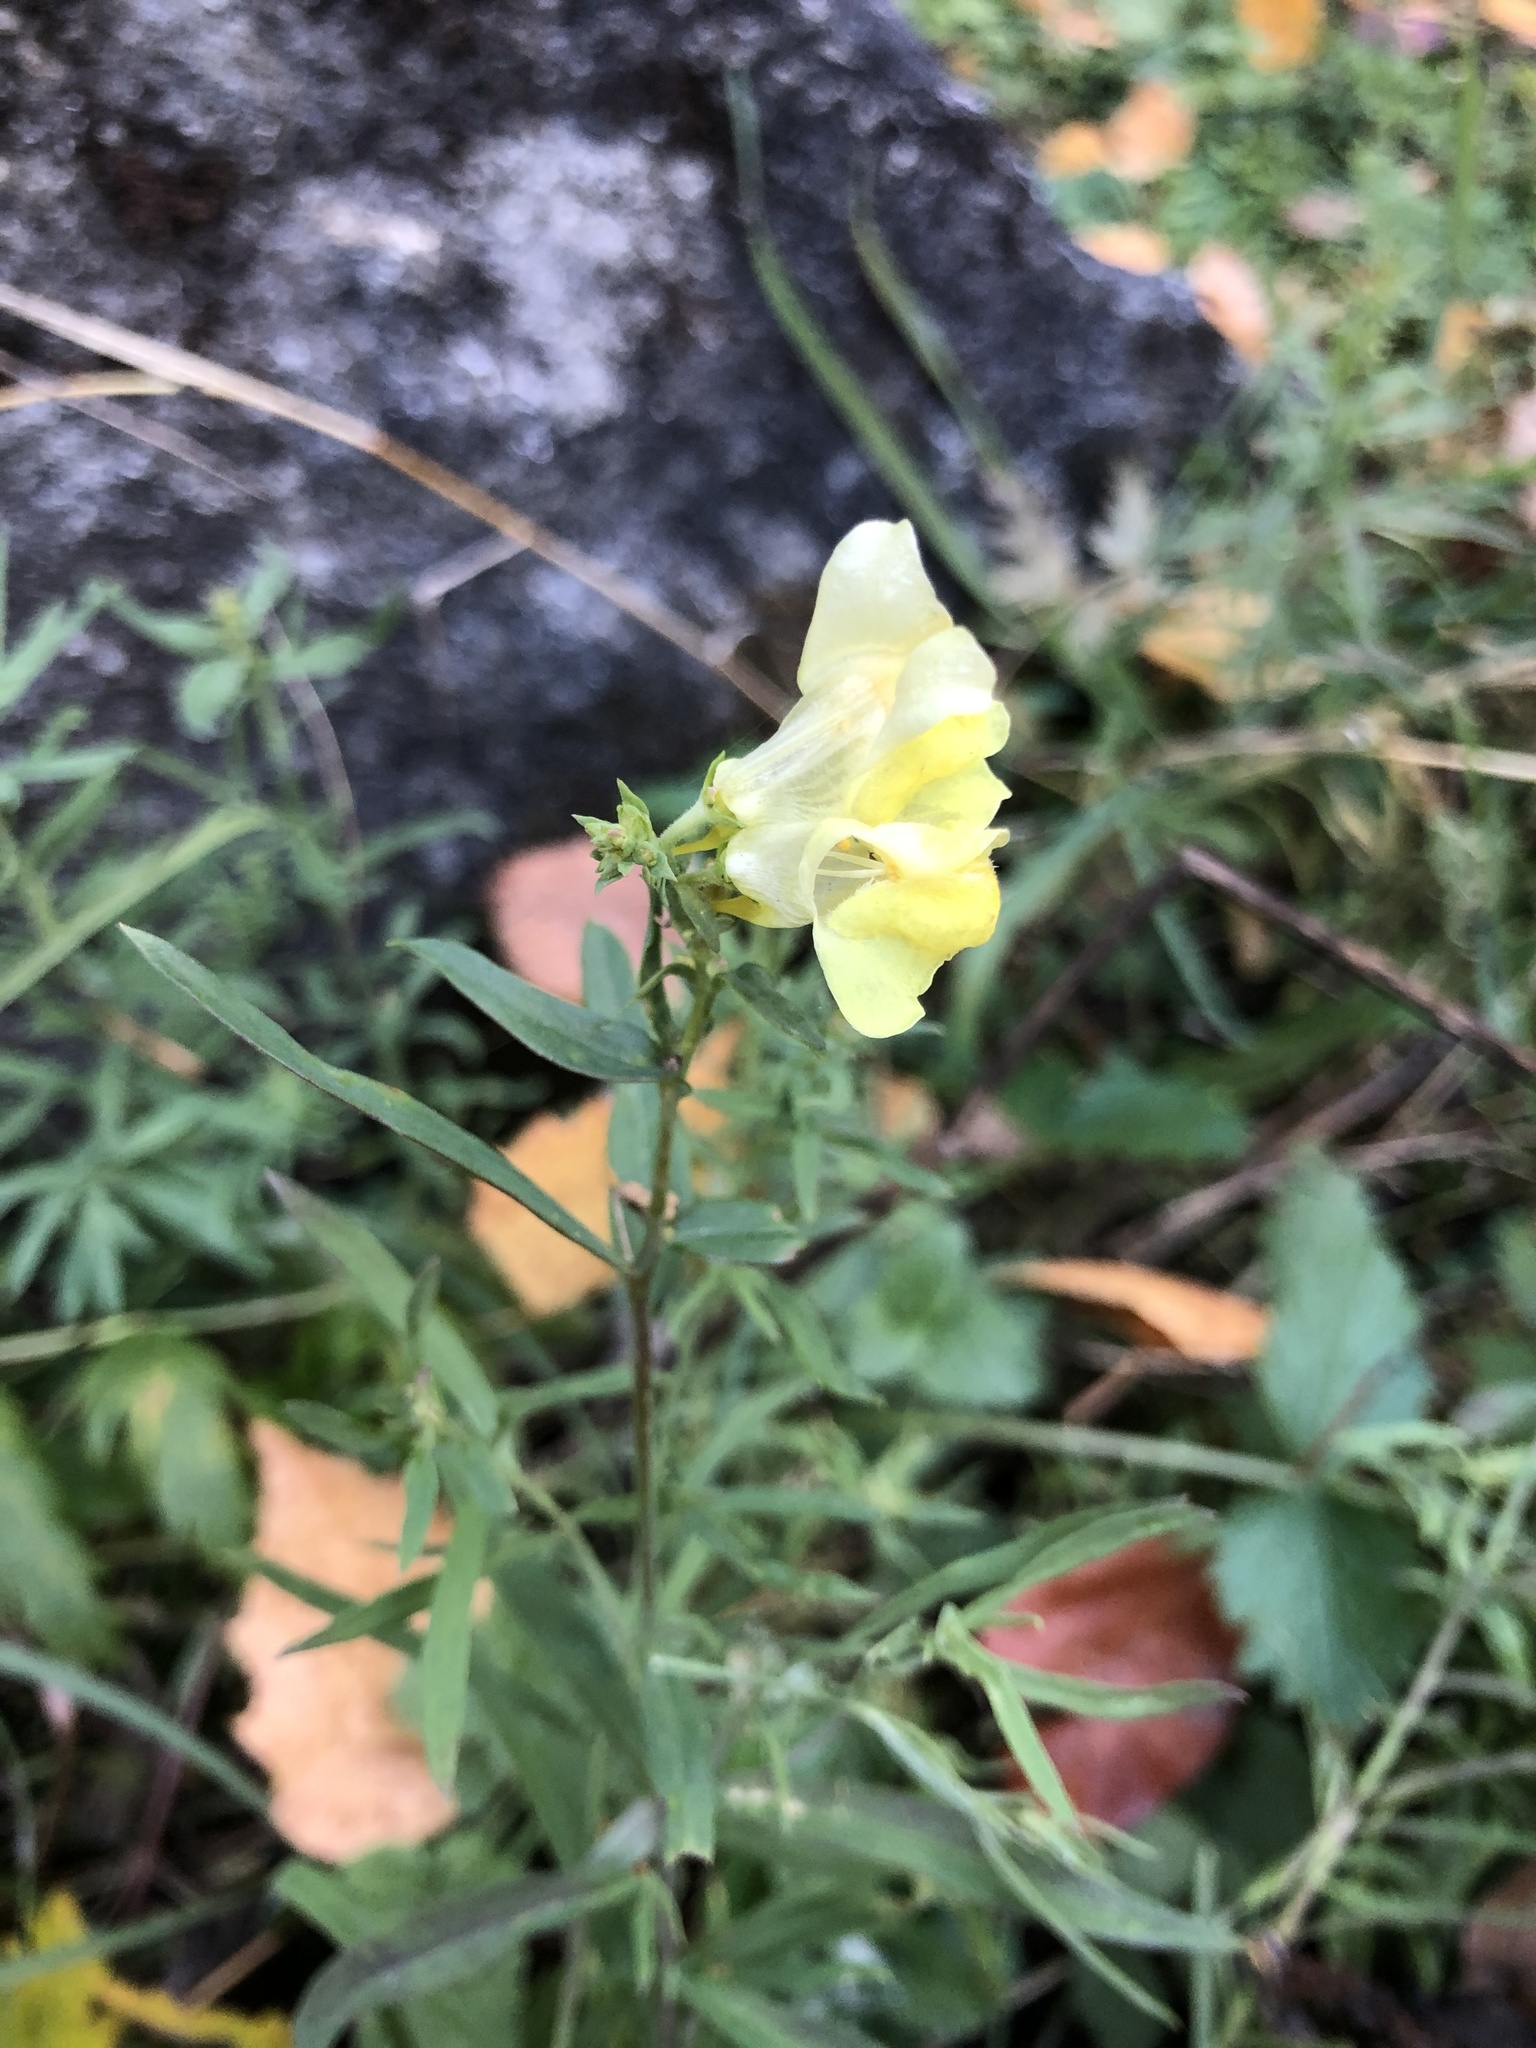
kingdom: Plantae
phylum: Tracheophyta
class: Magnoliopsida
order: Lamiales
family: Plantaginaceae
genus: Linaria
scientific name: Linaria vulgaris
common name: Butter and eggs
